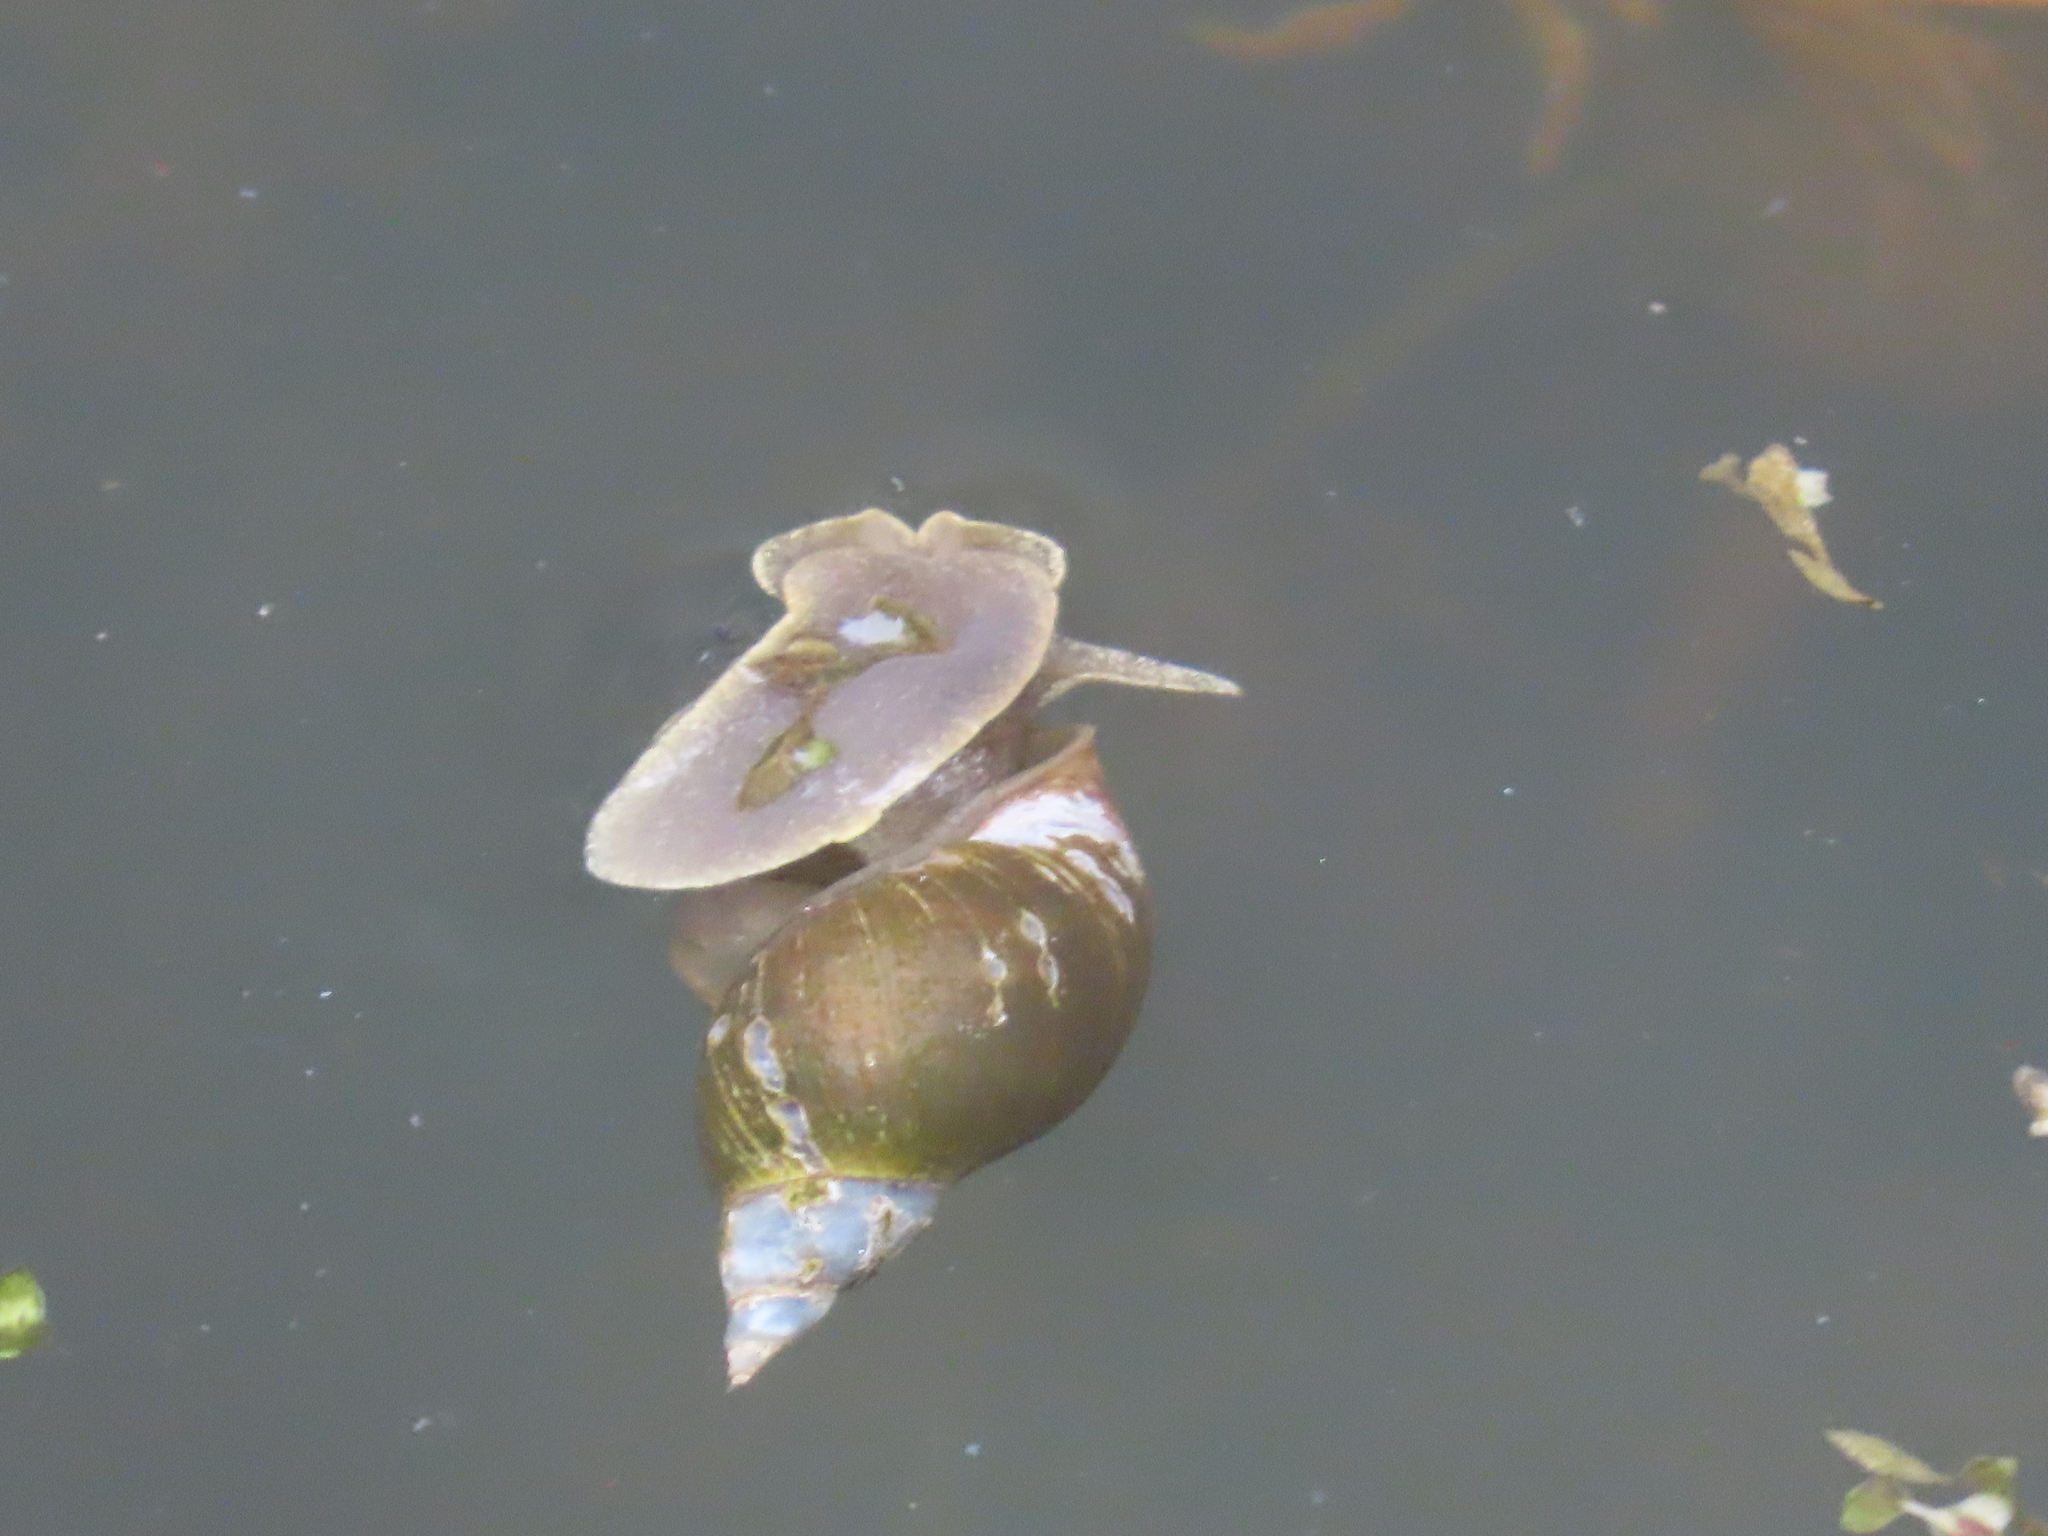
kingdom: Animalia
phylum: Mollusca
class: Gastropoda
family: Lymnaeidae
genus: Lymnaea
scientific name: Lymnaea stagnalis
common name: Great pond snail
